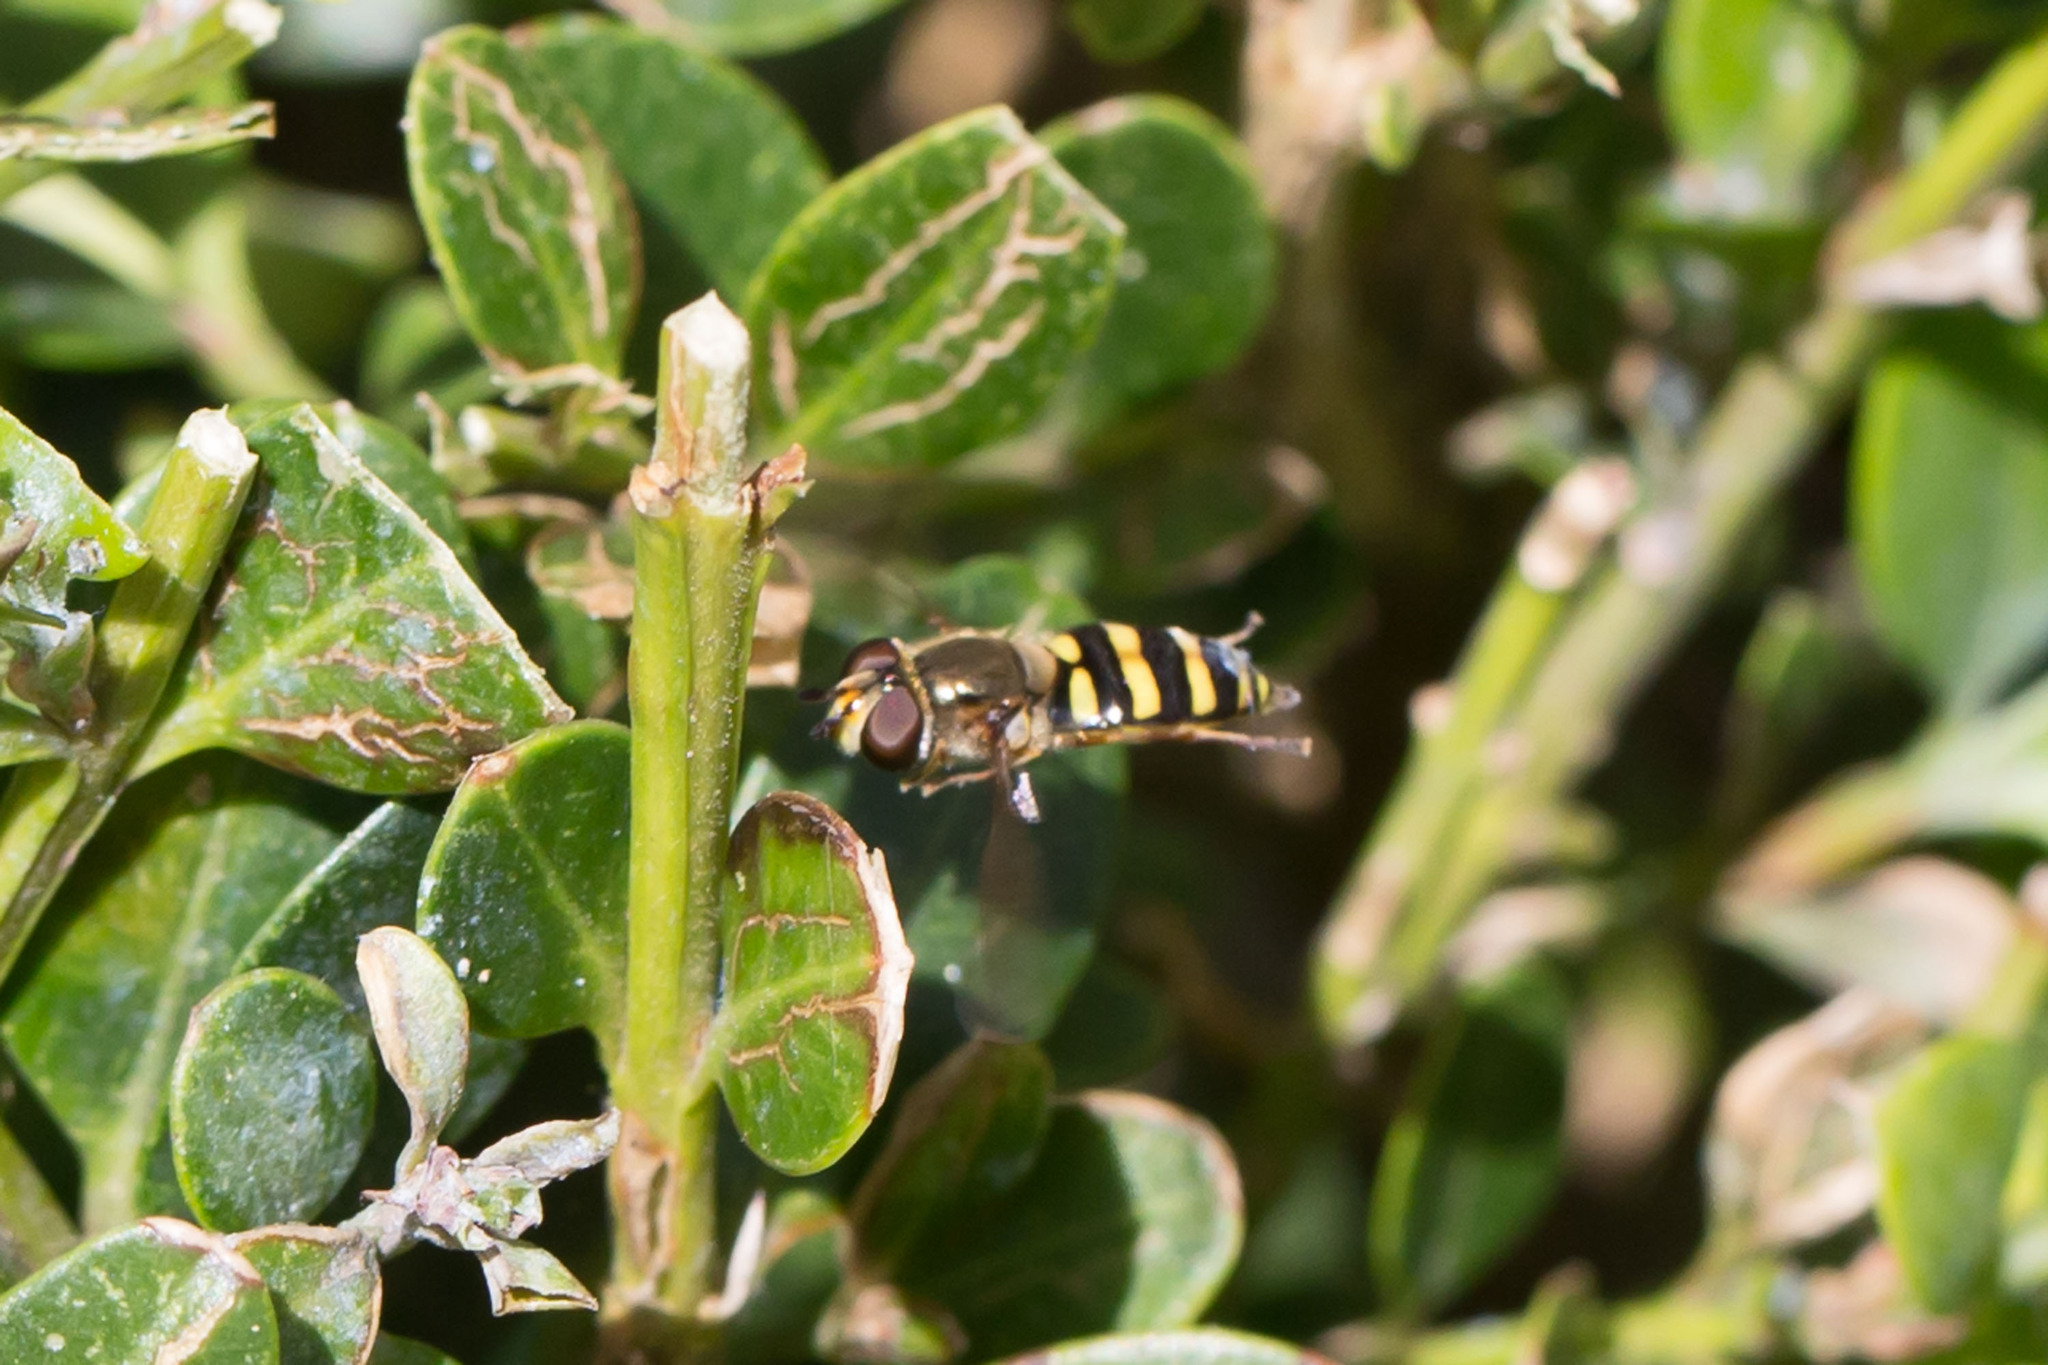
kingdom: Animalia
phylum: Arthropoda
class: Insecta
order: Diptera
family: Syrphidae
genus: Eupeodes
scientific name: Eupeodes
